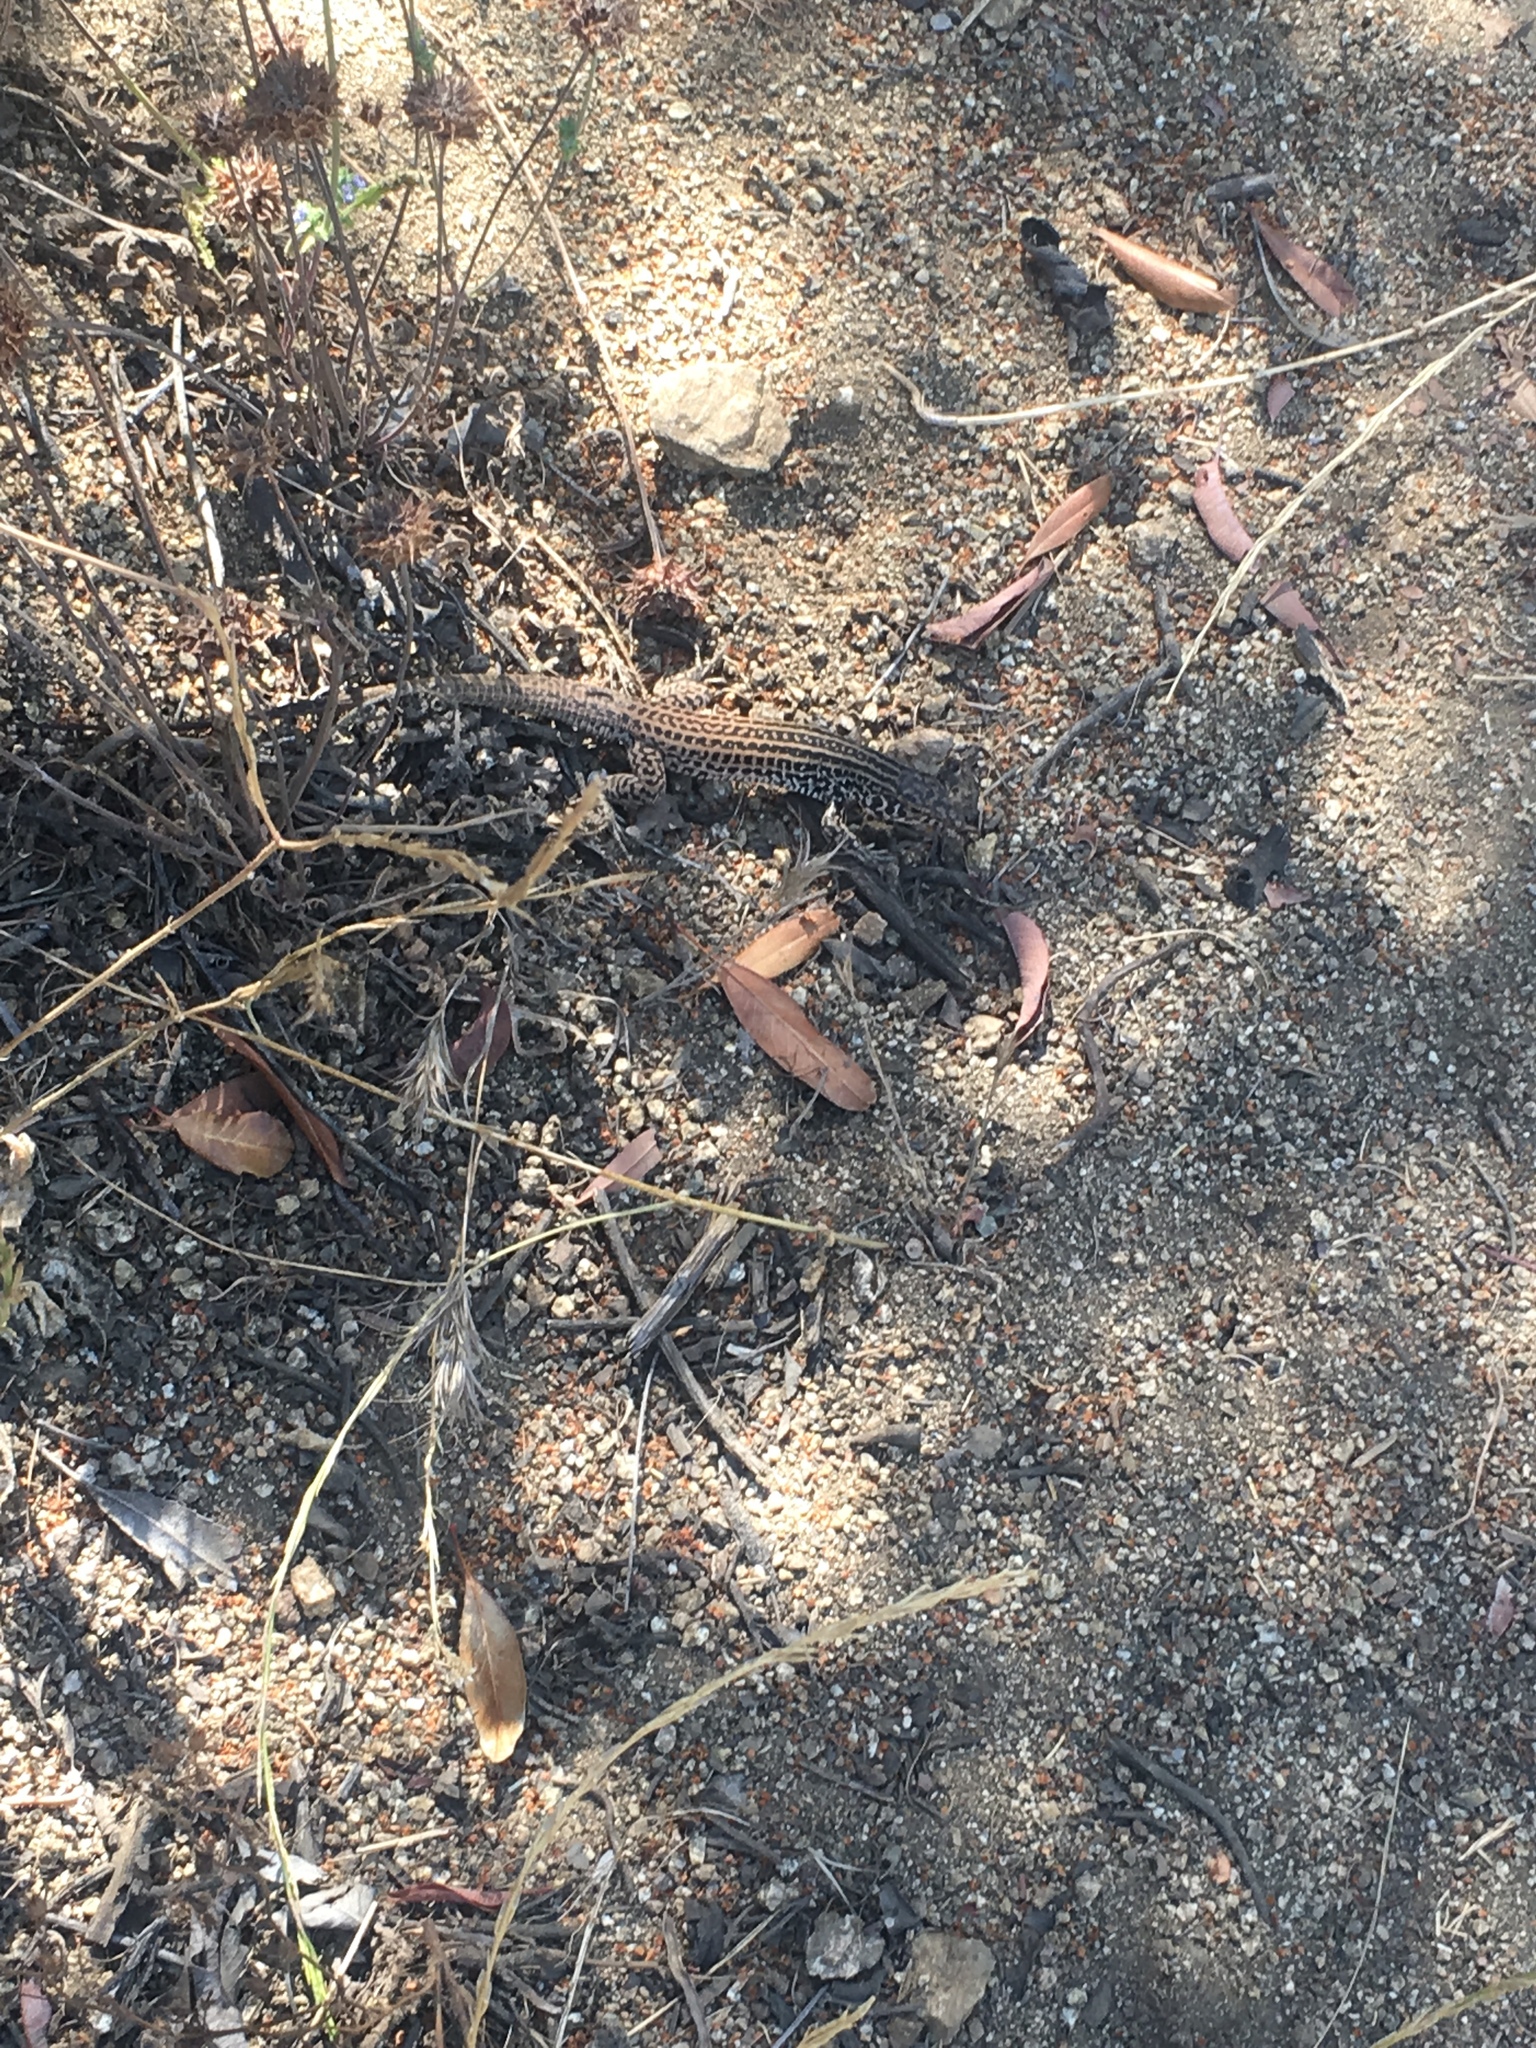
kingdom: Animalia
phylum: Chordata
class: Squamata
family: Teiidae
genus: Aspidoscelis
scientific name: Aspidoscelis tigris
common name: Tiger whiptail
